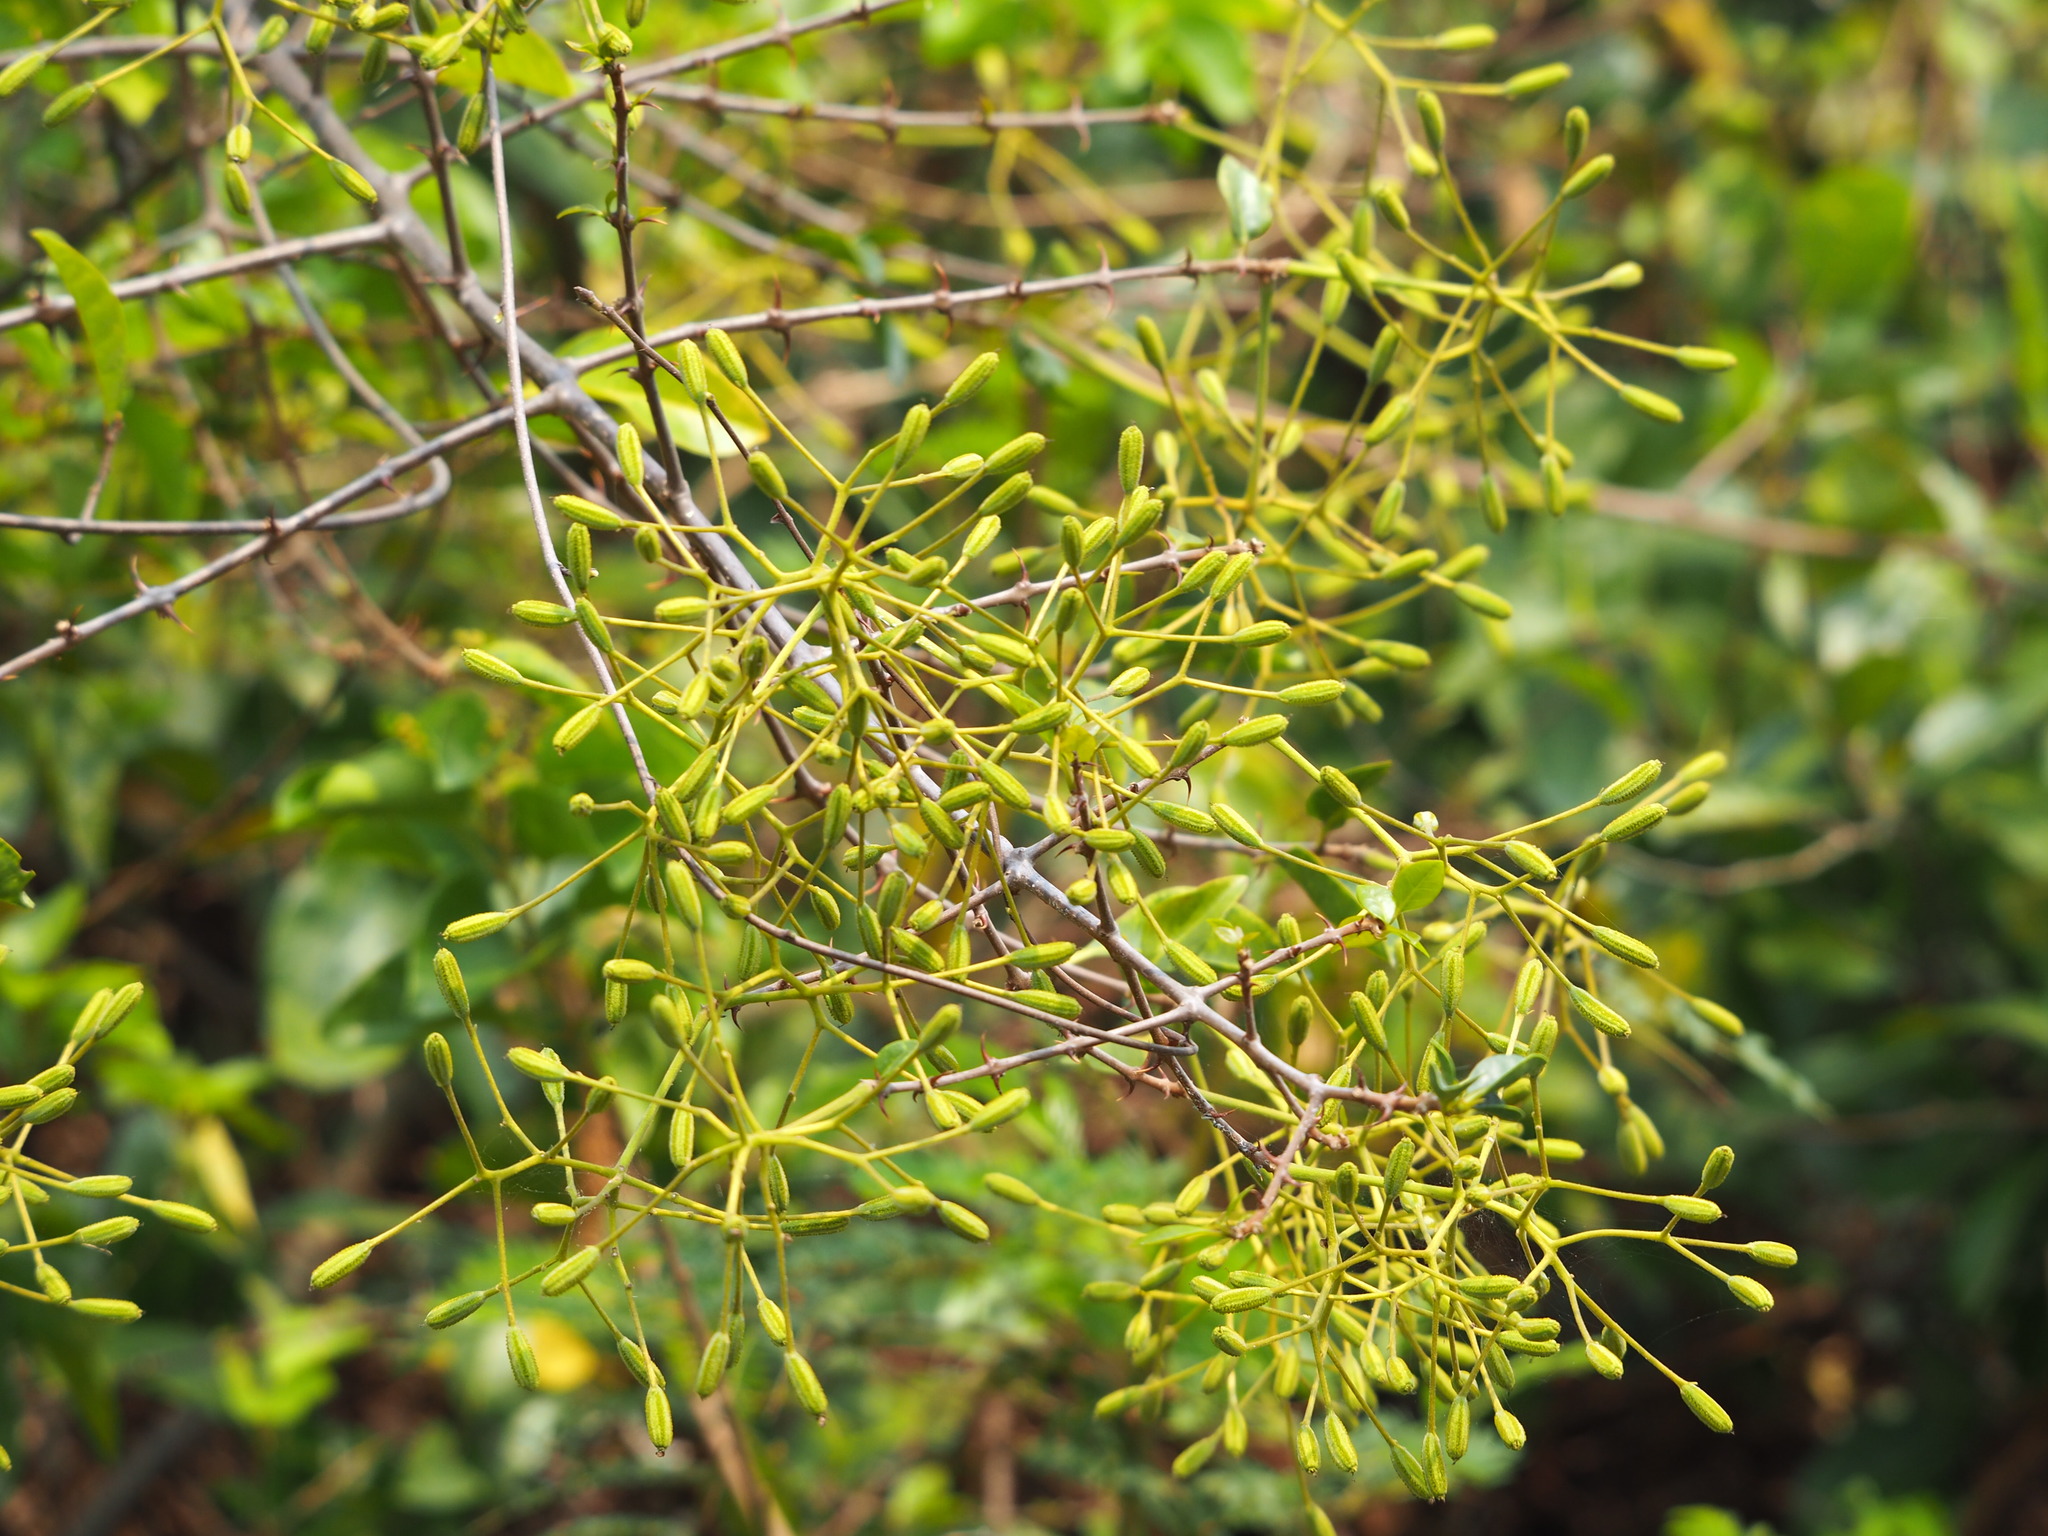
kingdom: Plantae
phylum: Tracheophyta
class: Magnoliopsida
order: Caryophyllales
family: Nyctaginaceae
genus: Pisonia
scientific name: Pisonia aculeata
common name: Cockspur vine
